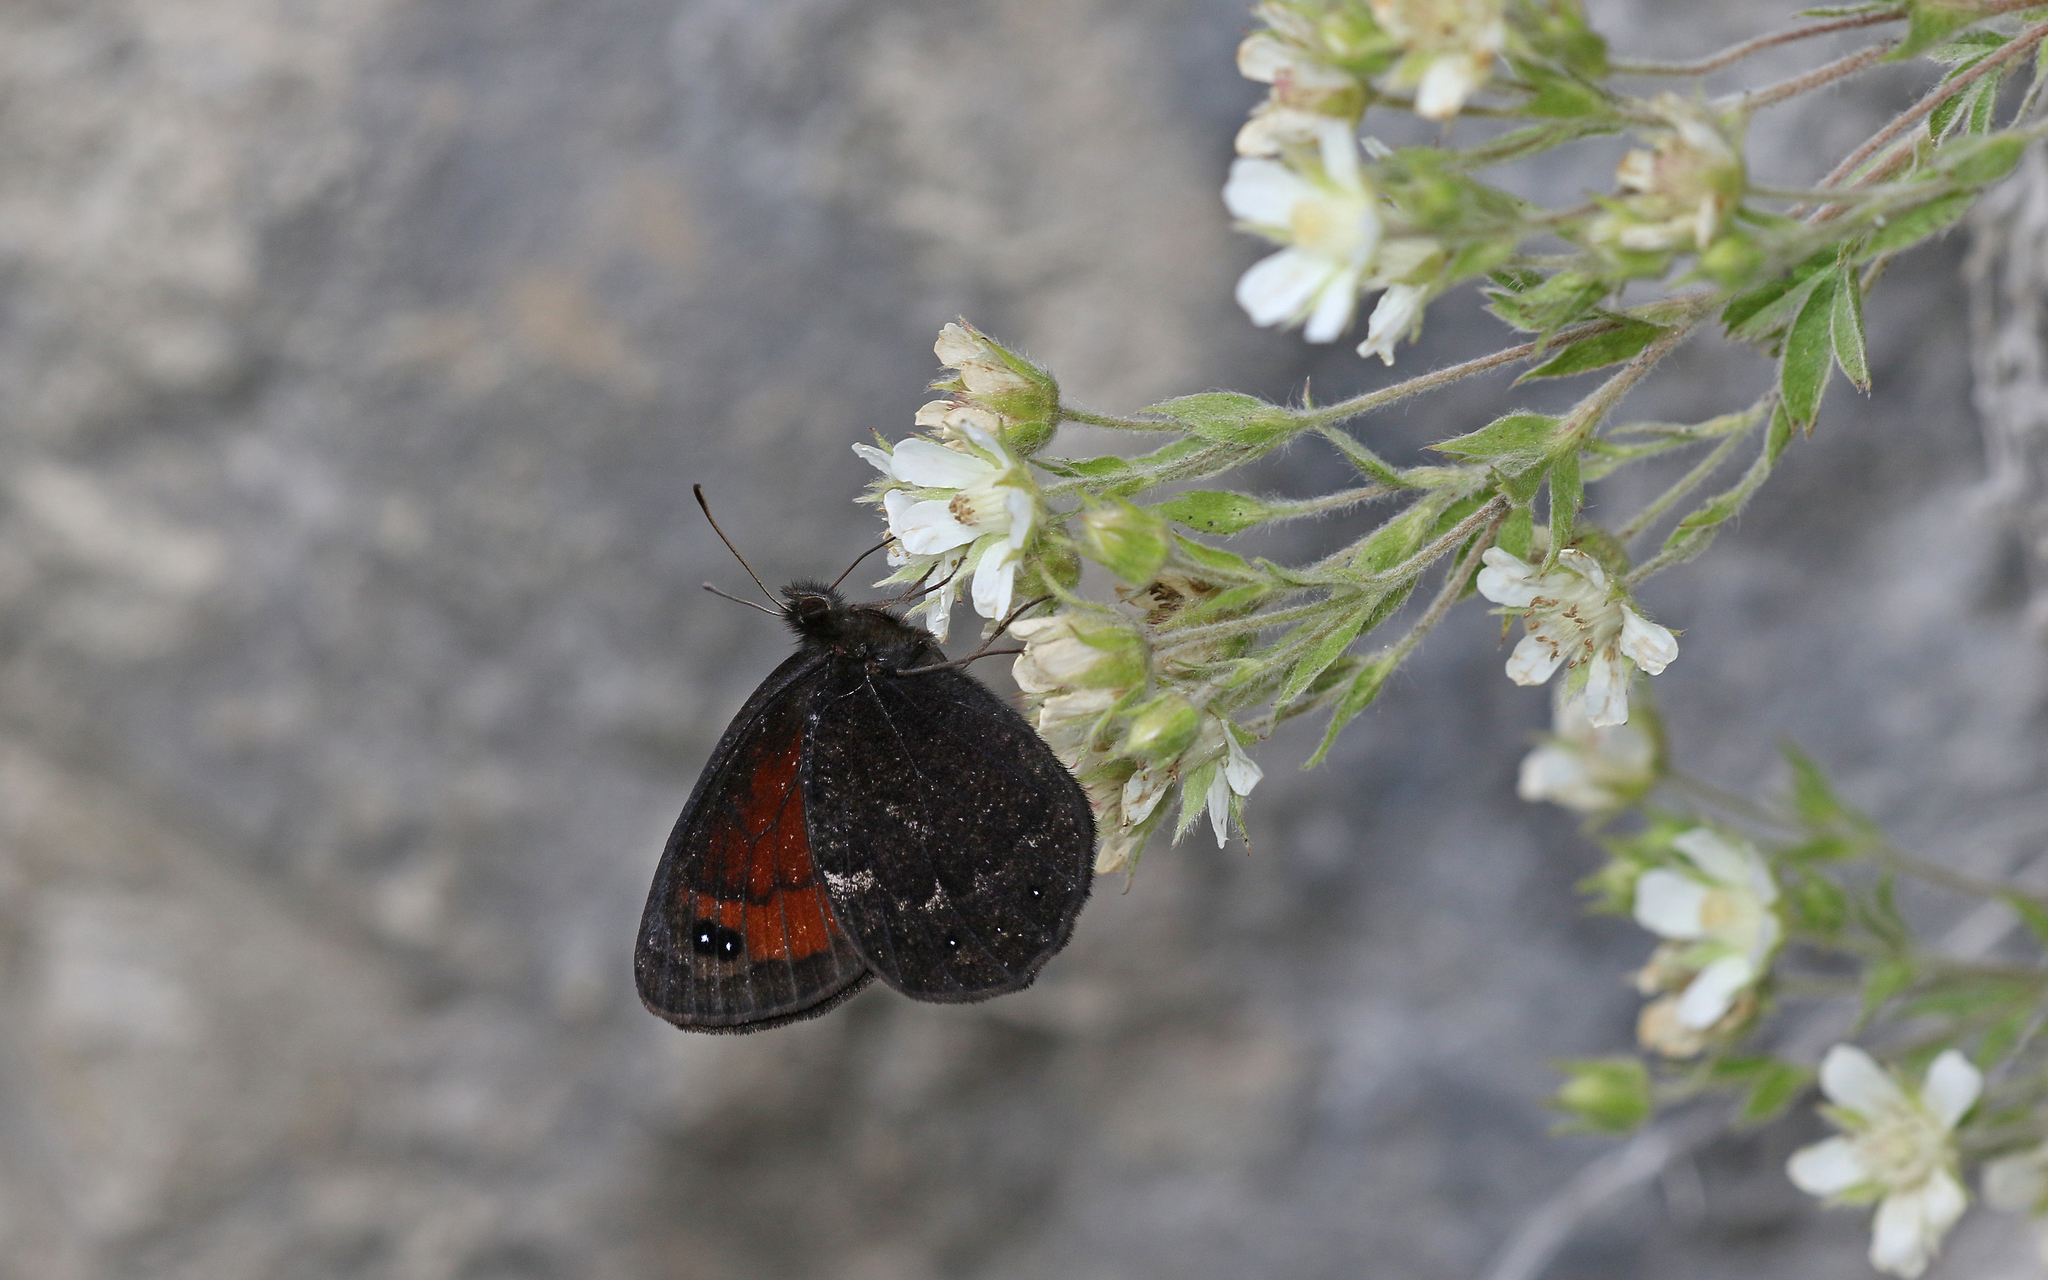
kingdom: Animalia
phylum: Arthropoda
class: Insecta
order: Lepidoptera
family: Nymphalidae
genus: Callerebia
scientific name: Callerebia mani
